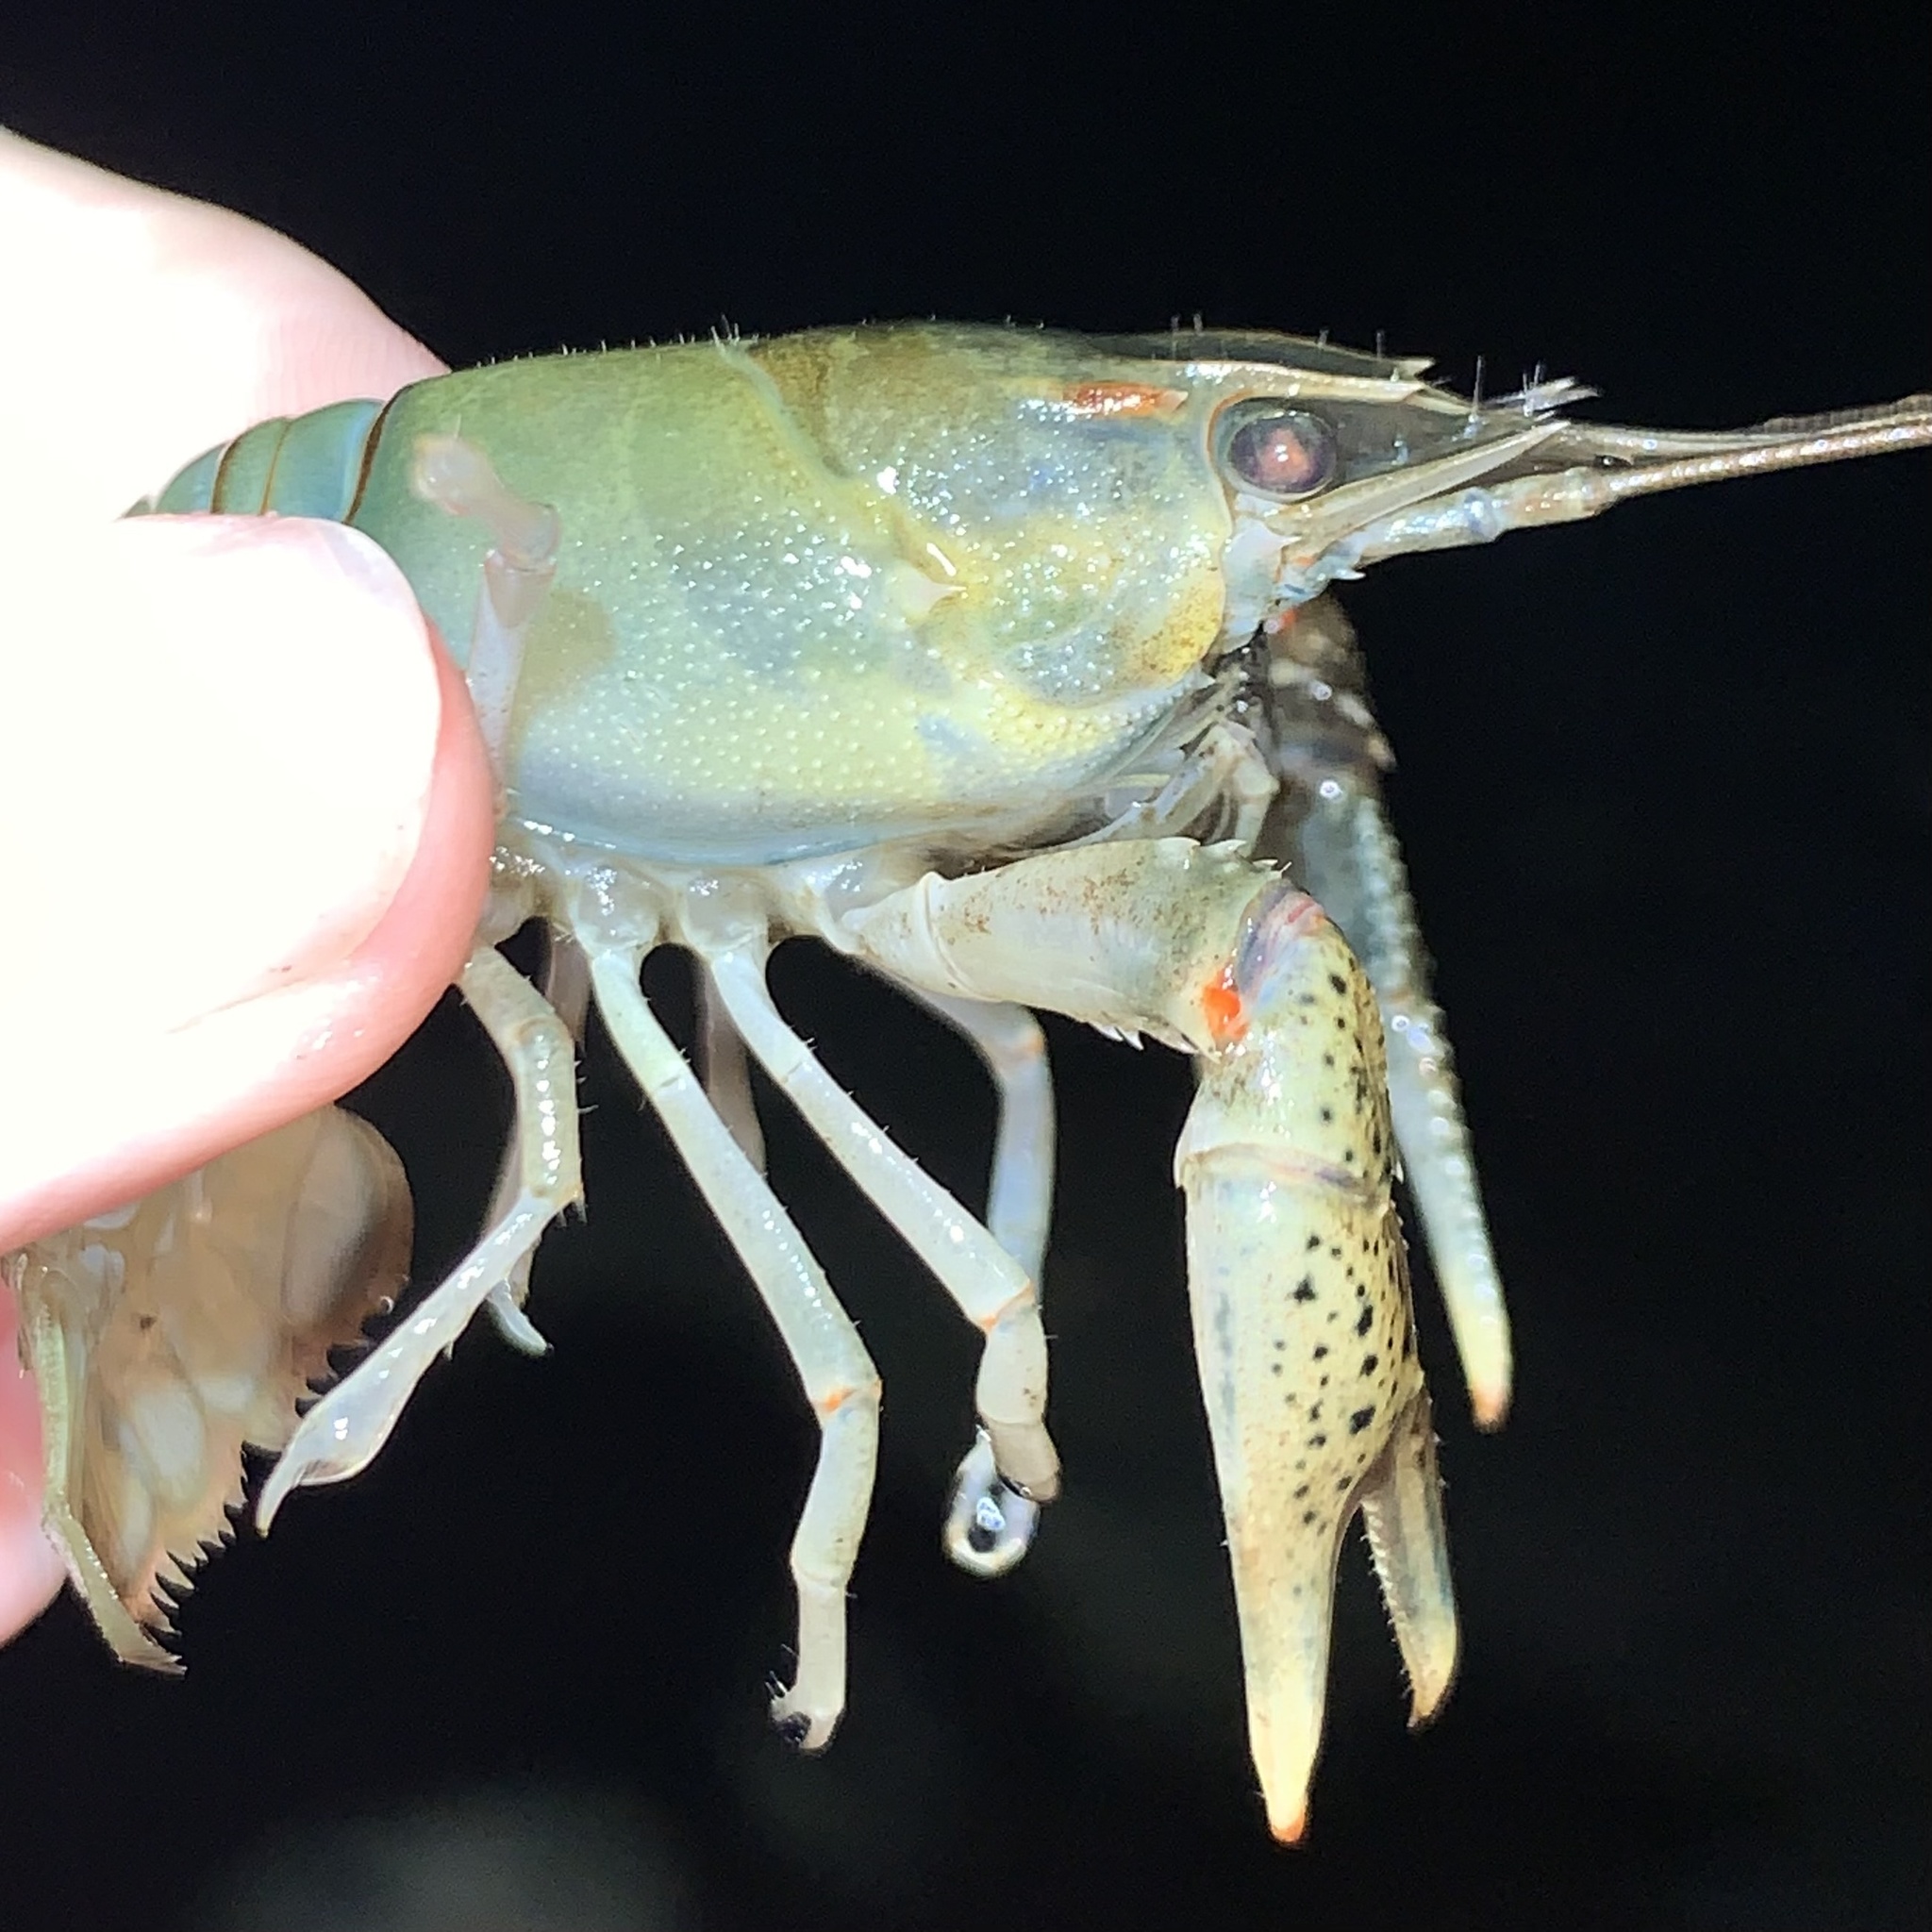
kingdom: Animalia
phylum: Arthropoda
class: Malacostraca
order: Decapoda
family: Cambaridae
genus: Faxonius
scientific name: Faxonius texanus
